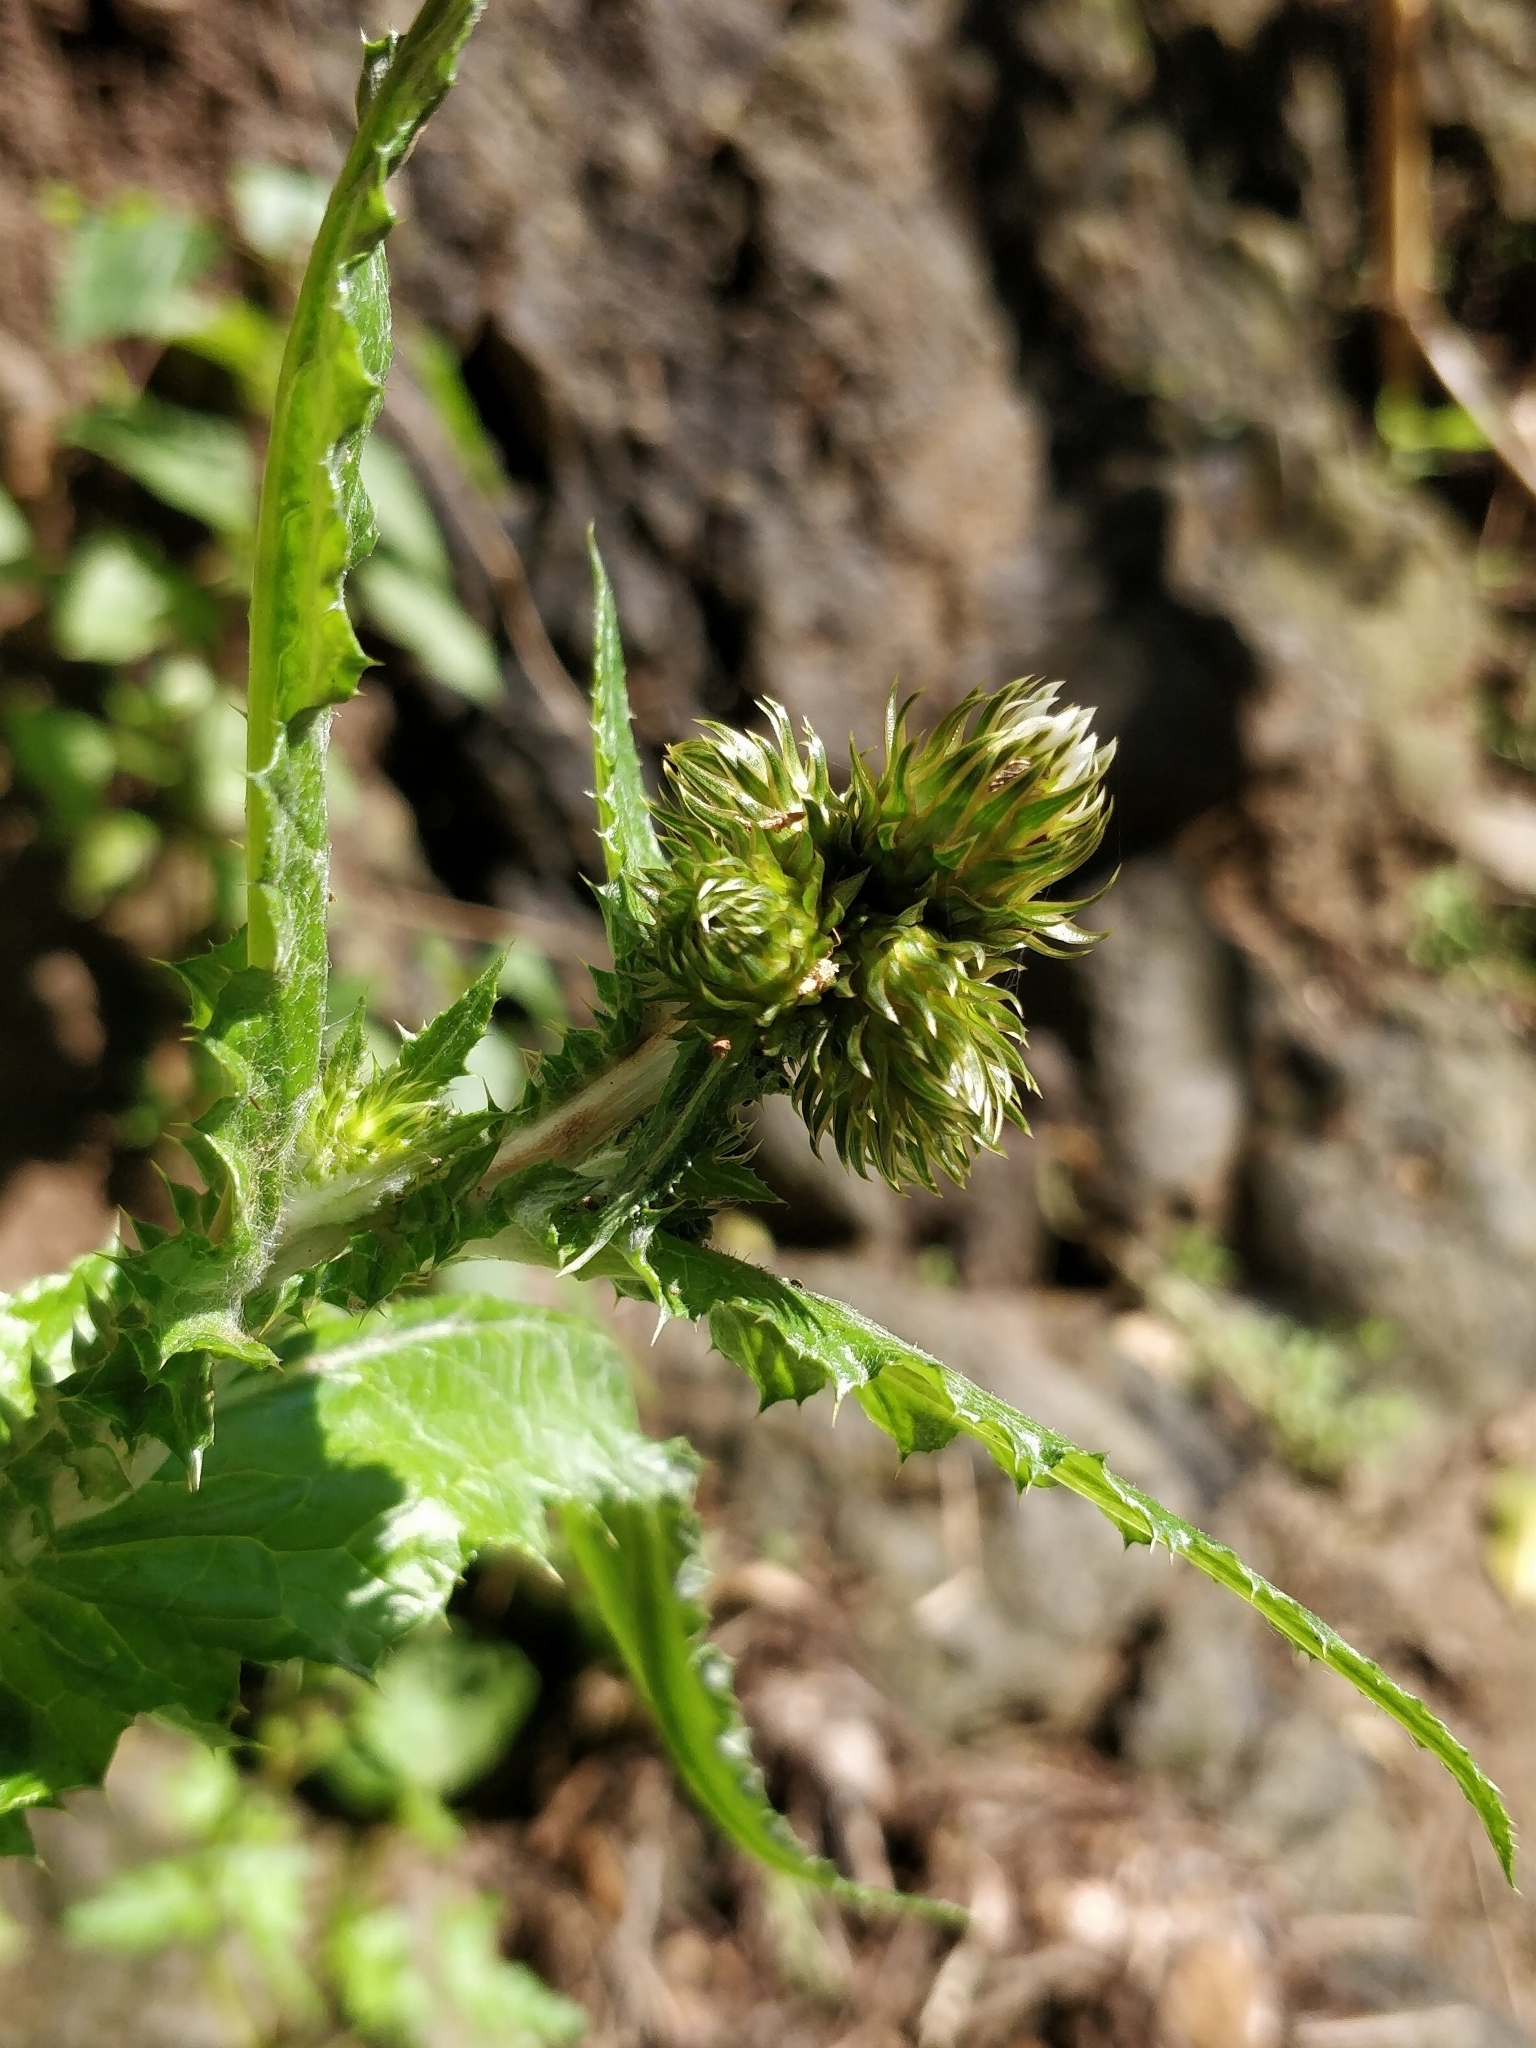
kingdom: Plantae
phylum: Tracheophyta
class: Magnoliopsida
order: Asterales
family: Asteraceae
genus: Carduus
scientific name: Carduus squarrosus
